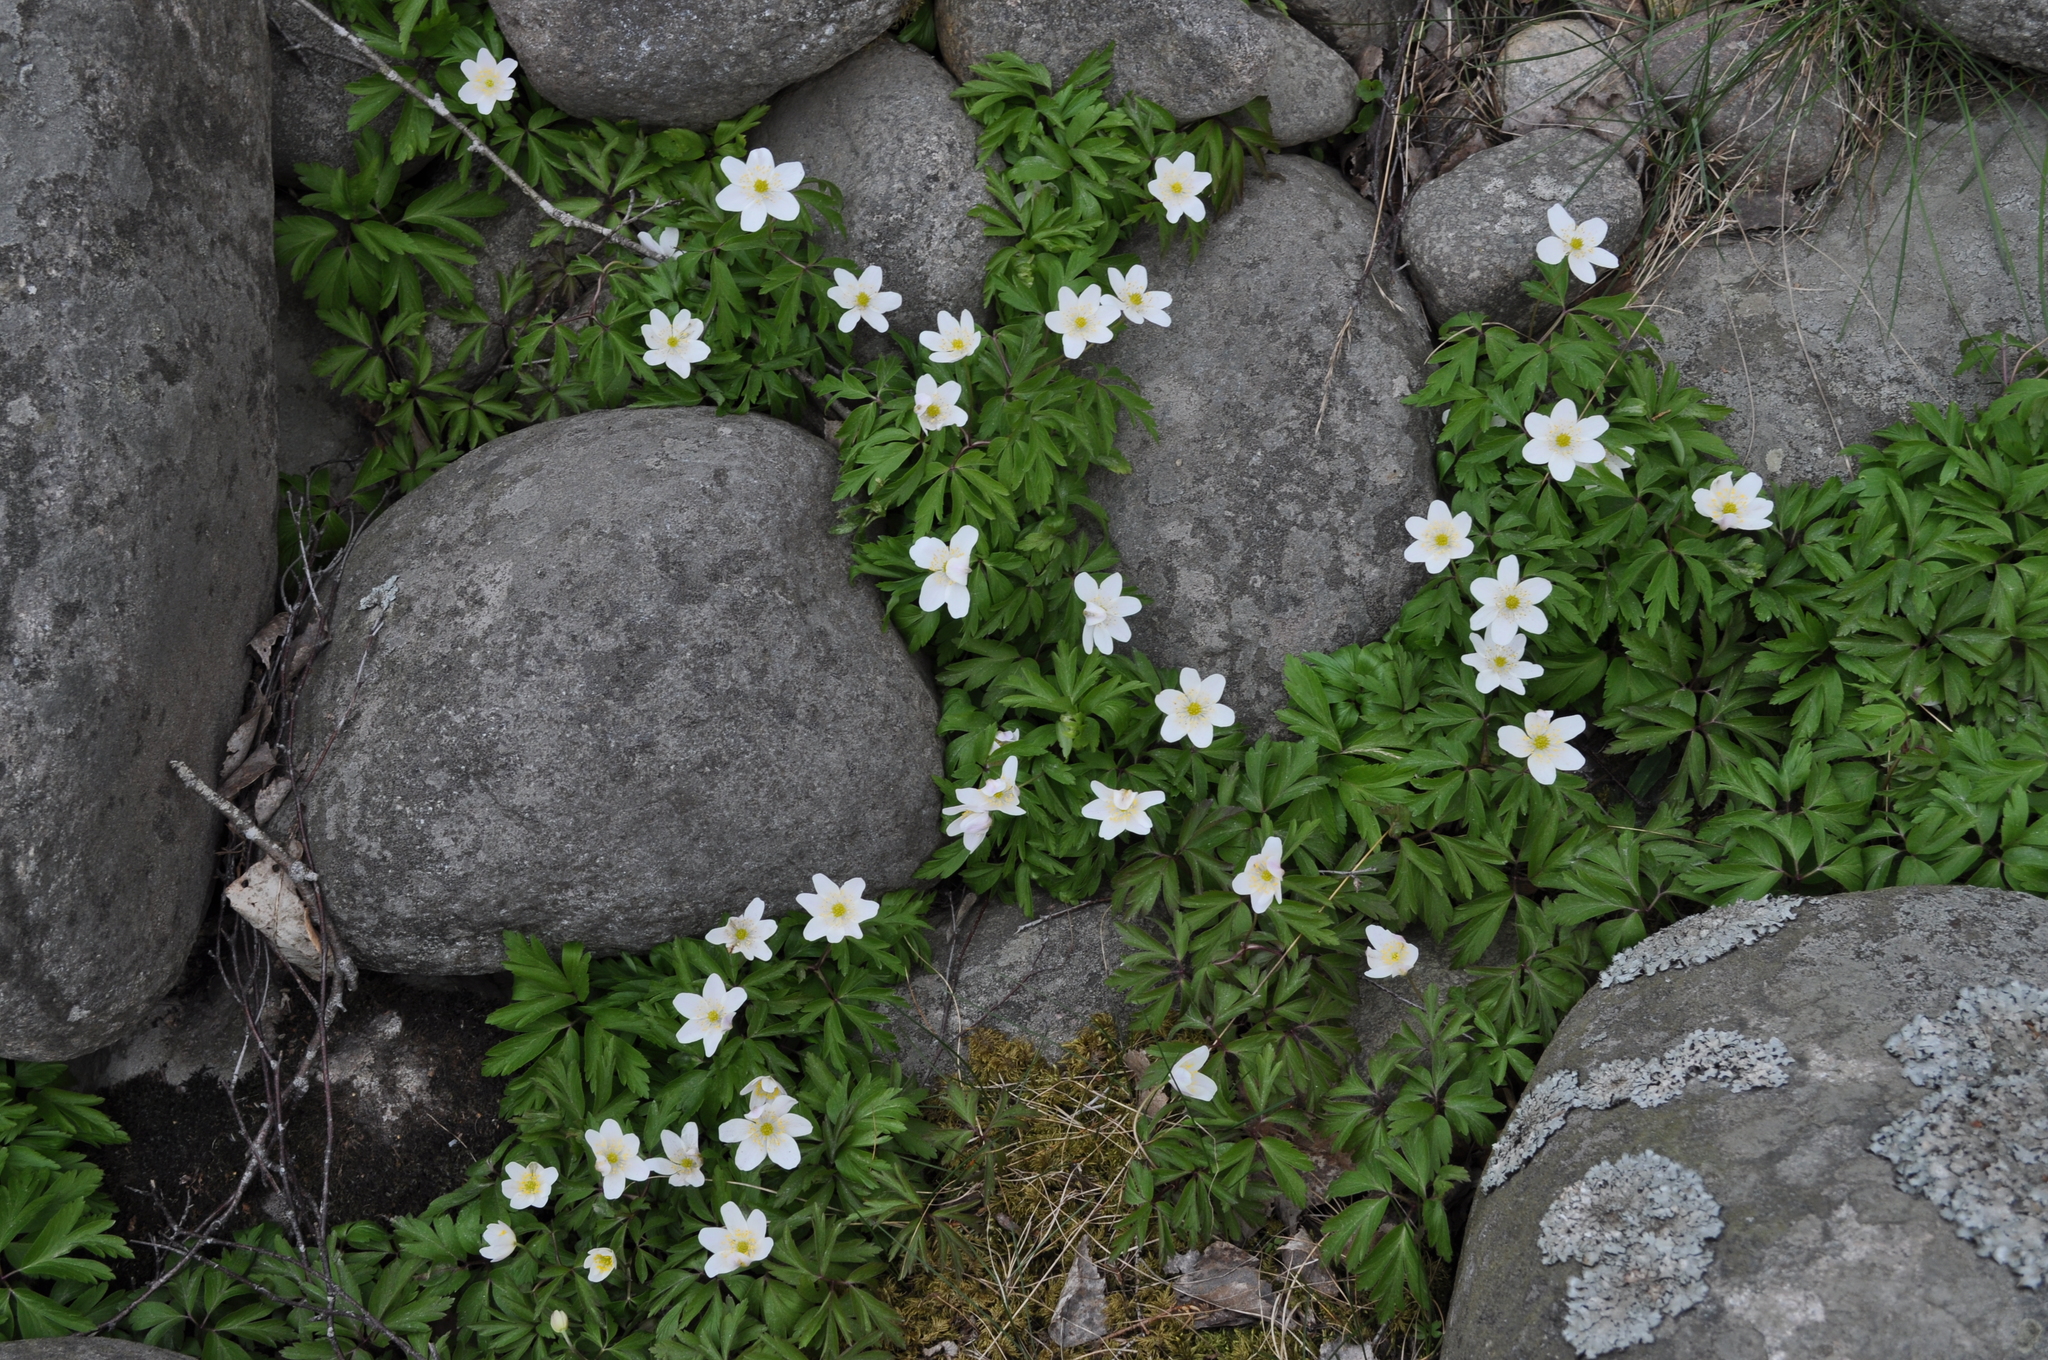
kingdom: Plantae
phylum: Tracheophyta
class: Magnoliopsida
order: Ranunculales
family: Ranunculaceae
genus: Anemone
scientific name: Anemone nemorosa
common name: Wood anemone
